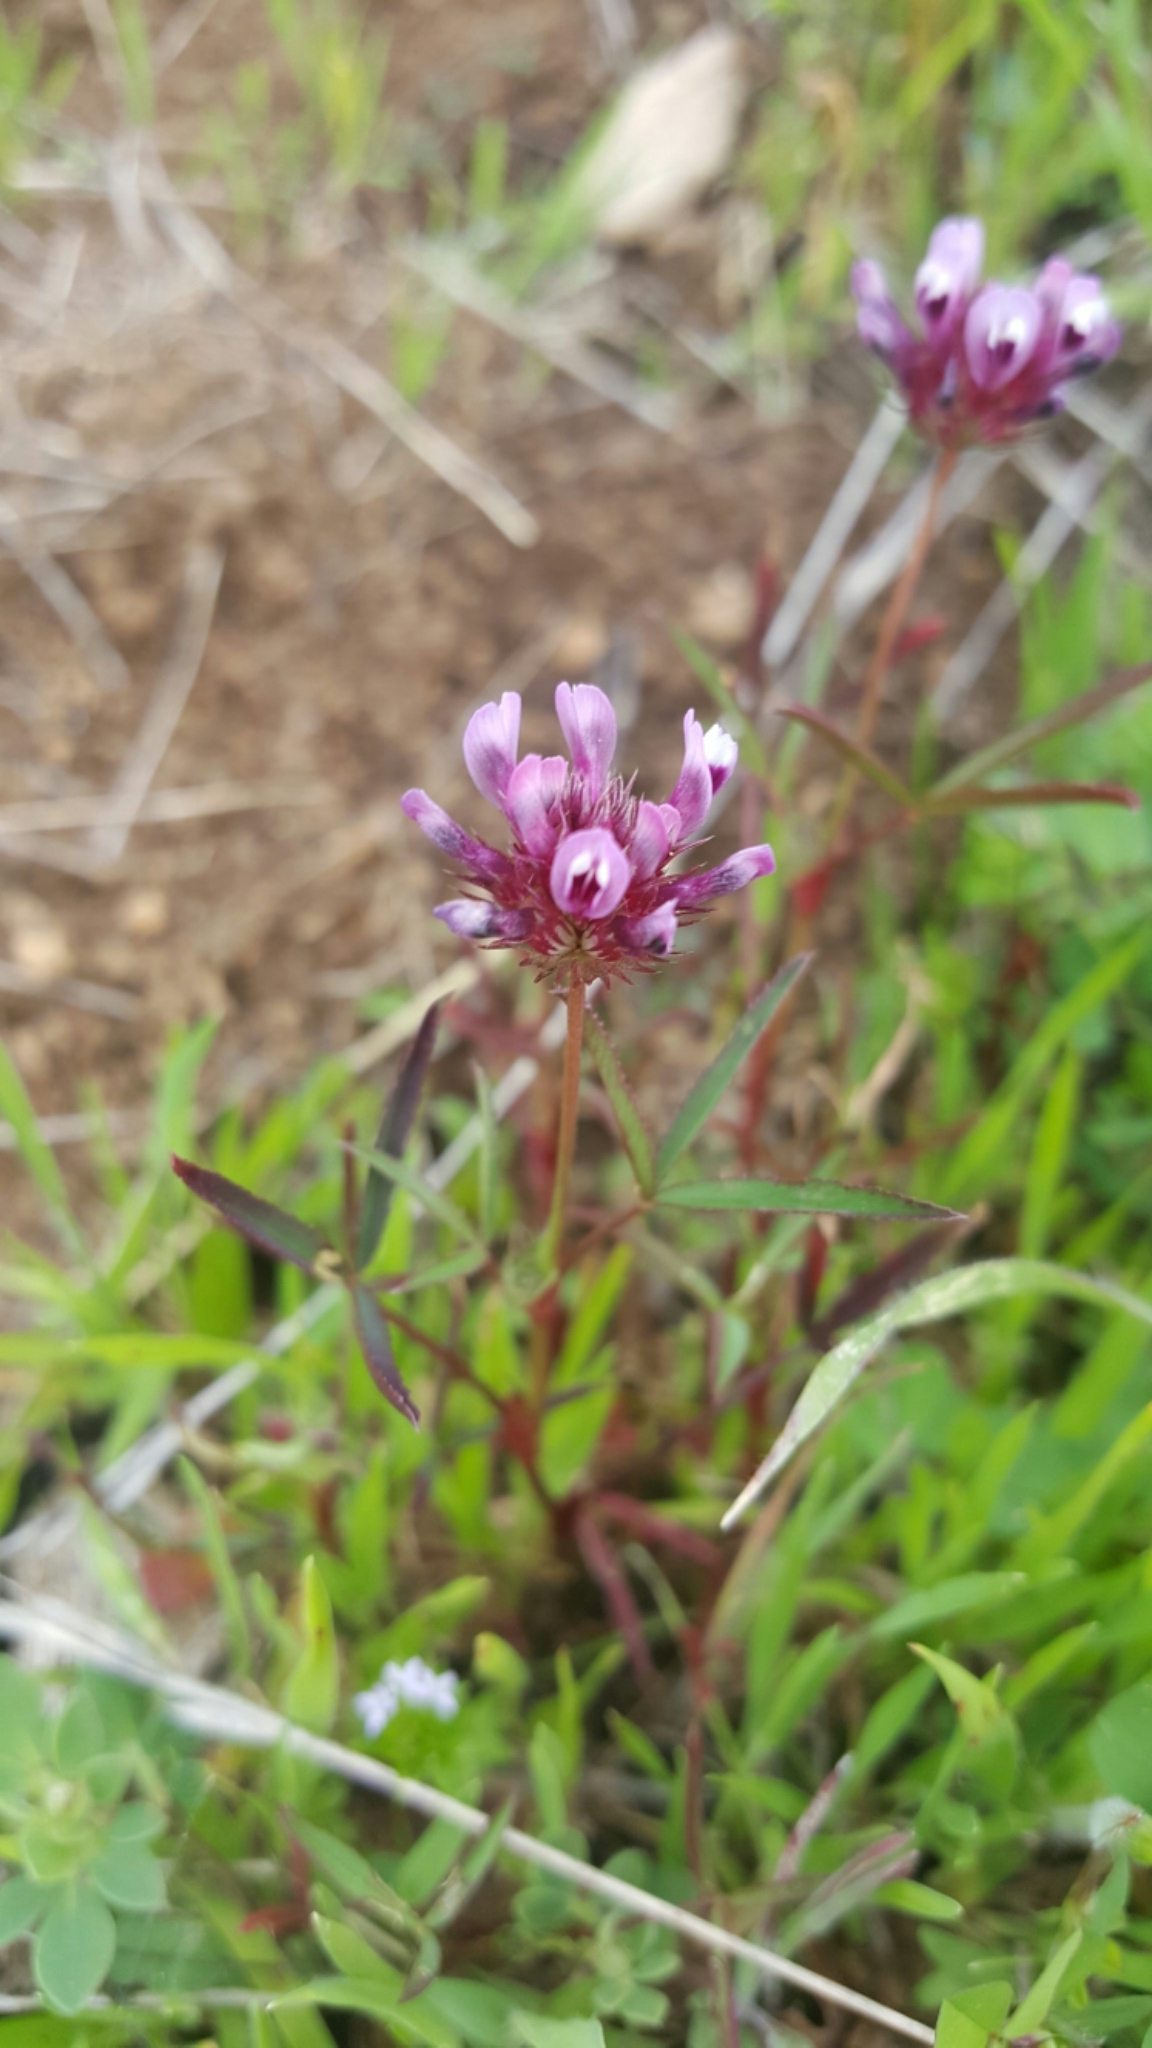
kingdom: Plantae
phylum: Tracheophyta
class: Magnoliopsida
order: Fabales
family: Fabaceae
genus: Trifolium
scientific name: Trifolium willdenovii
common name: Tomcat clover
